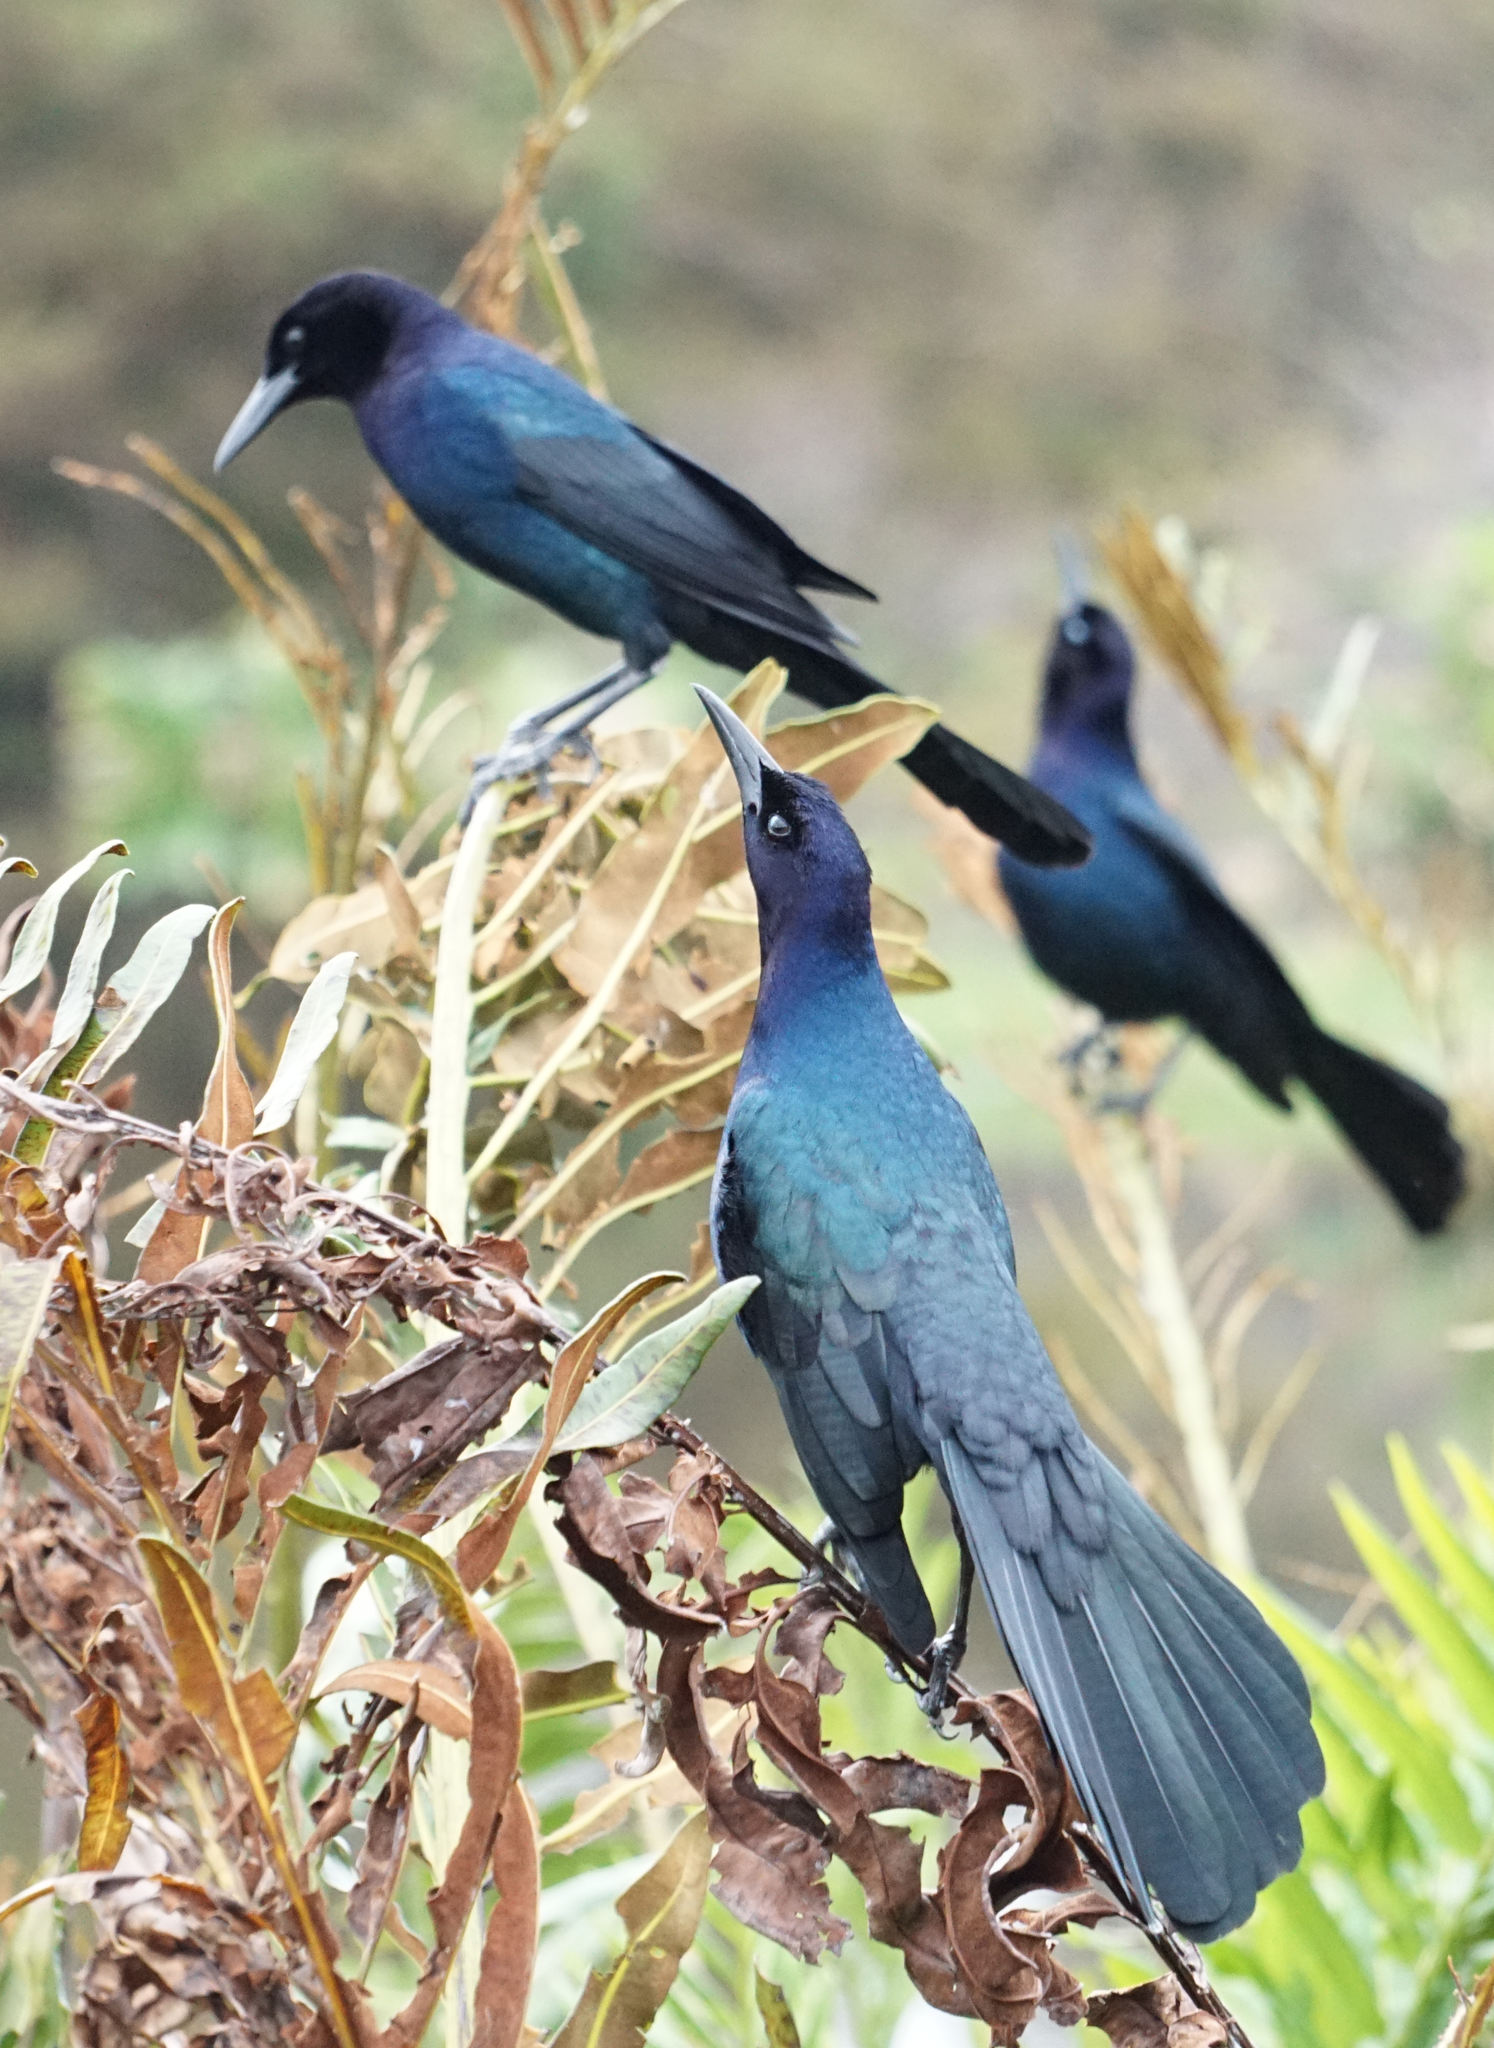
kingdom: Animalia
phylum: Chordata
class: Aves
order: Passeriformes
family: Icteridae
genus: Quiscalus
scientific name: Quiscalus major
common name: Boat-tailed grackle
